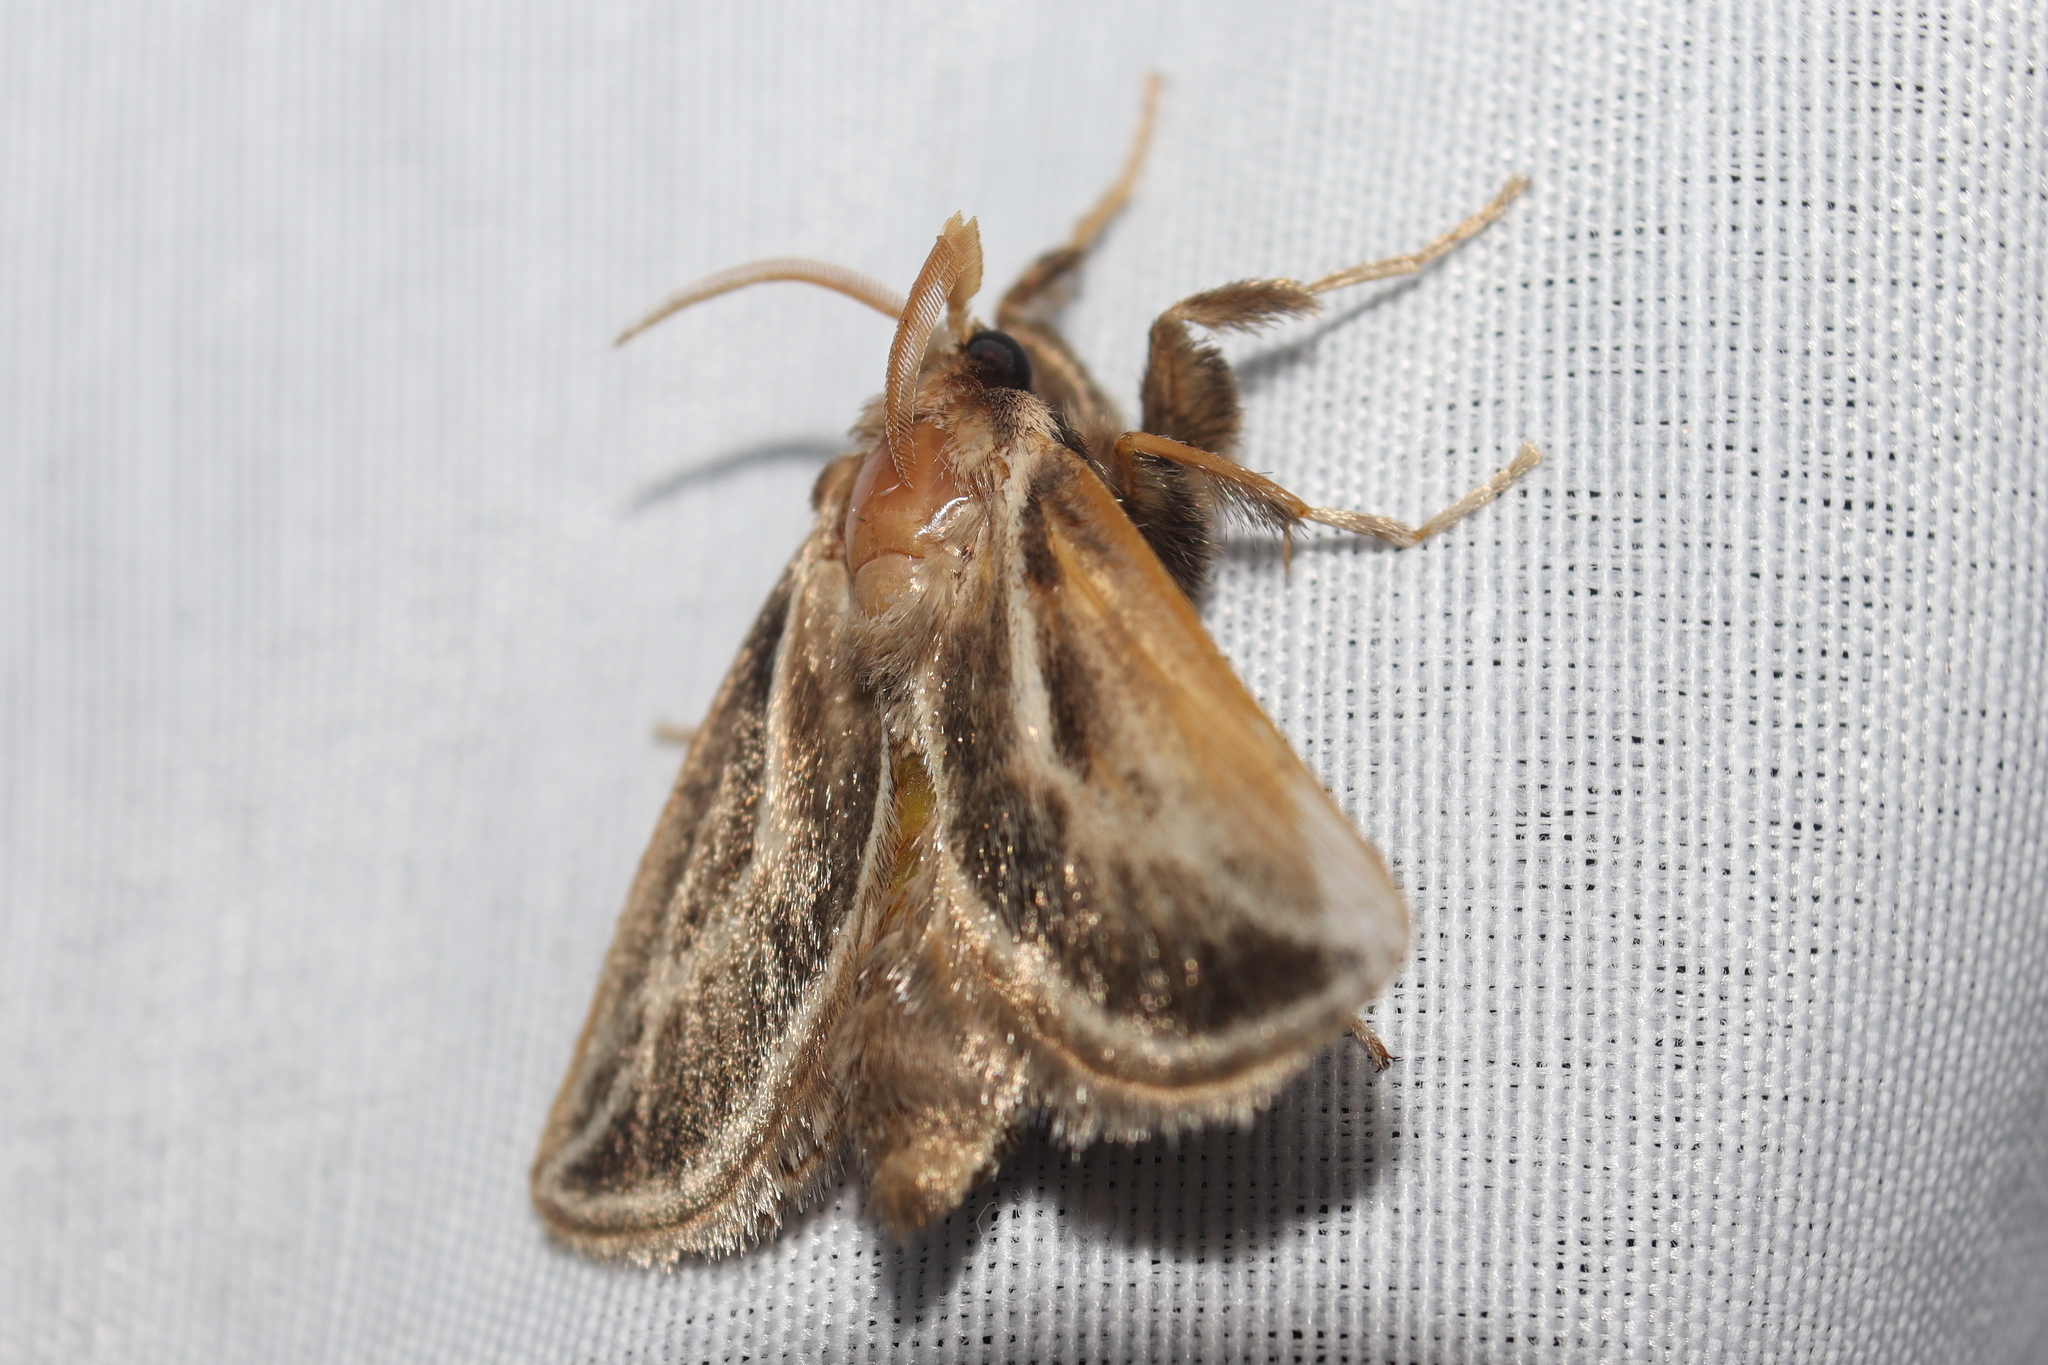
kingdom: Animalia
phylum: Arthropoda
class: Insecta
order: Lepidoptera
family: Limacodidae
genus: Perola
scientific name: Perola brumalis
